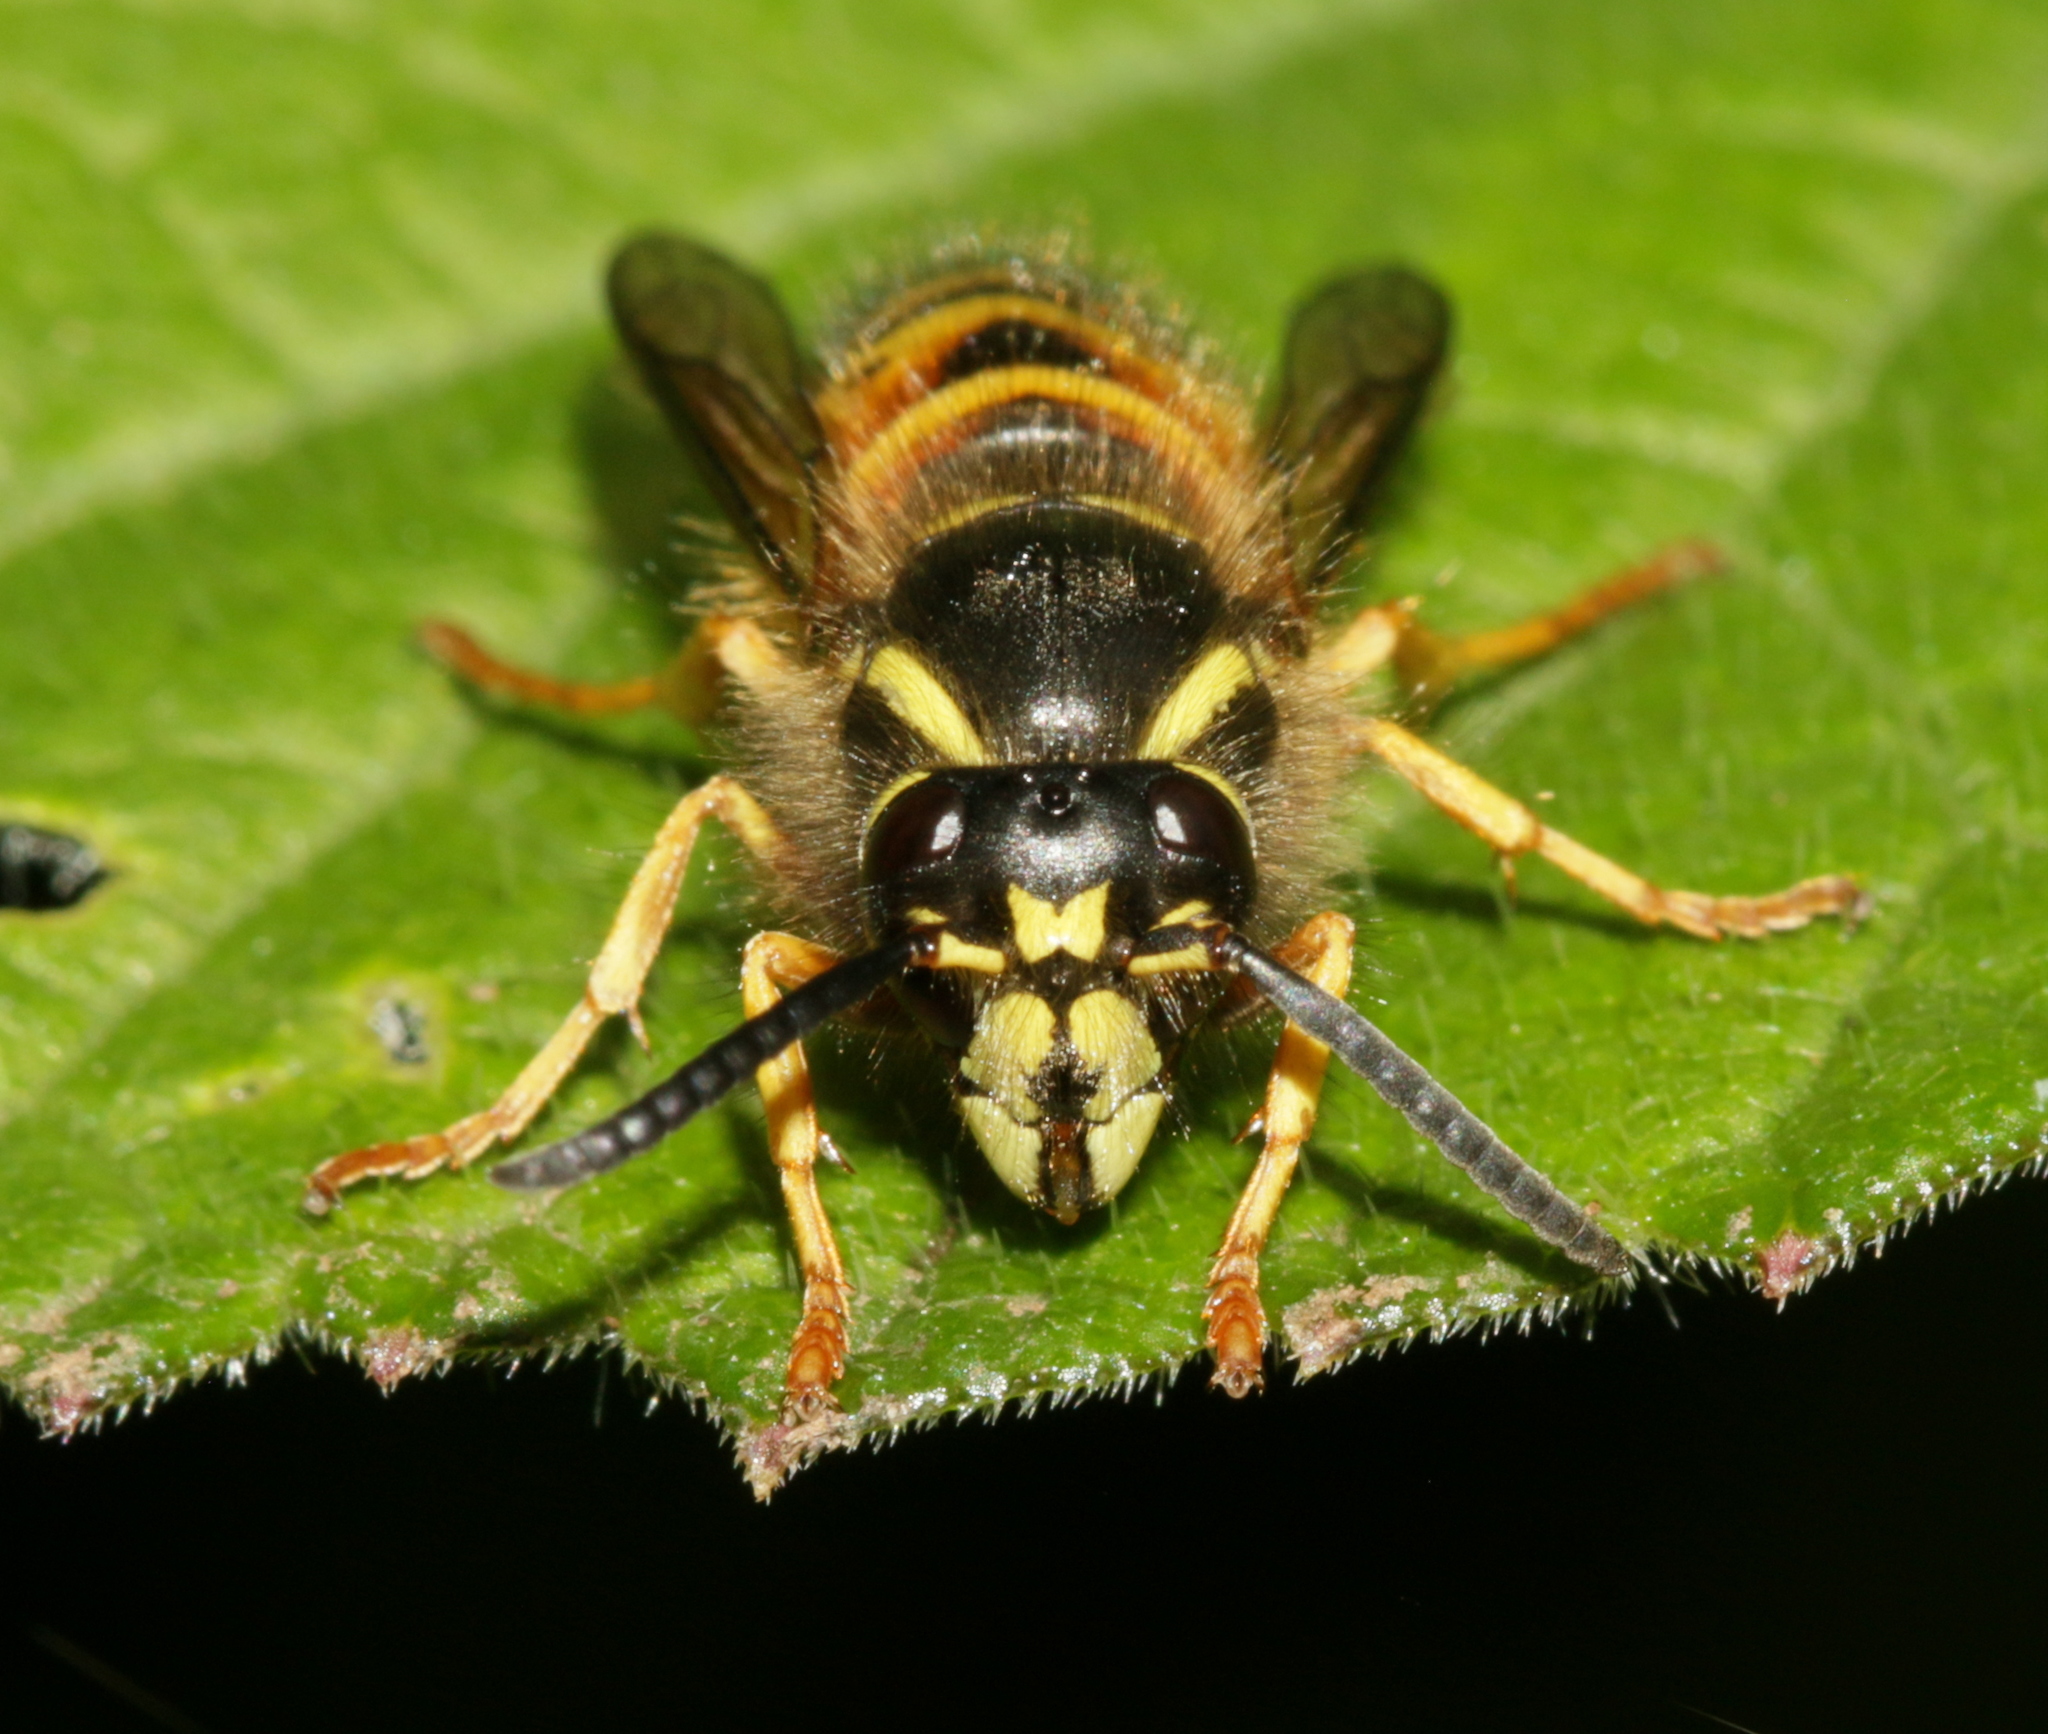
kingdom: Animalia
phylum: Arthropoda
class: Insecta
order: Hymenoptera
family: Vespidae
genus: Dolichovespula
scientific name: Dolichovespula norwegica
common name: Norwegian wasp
